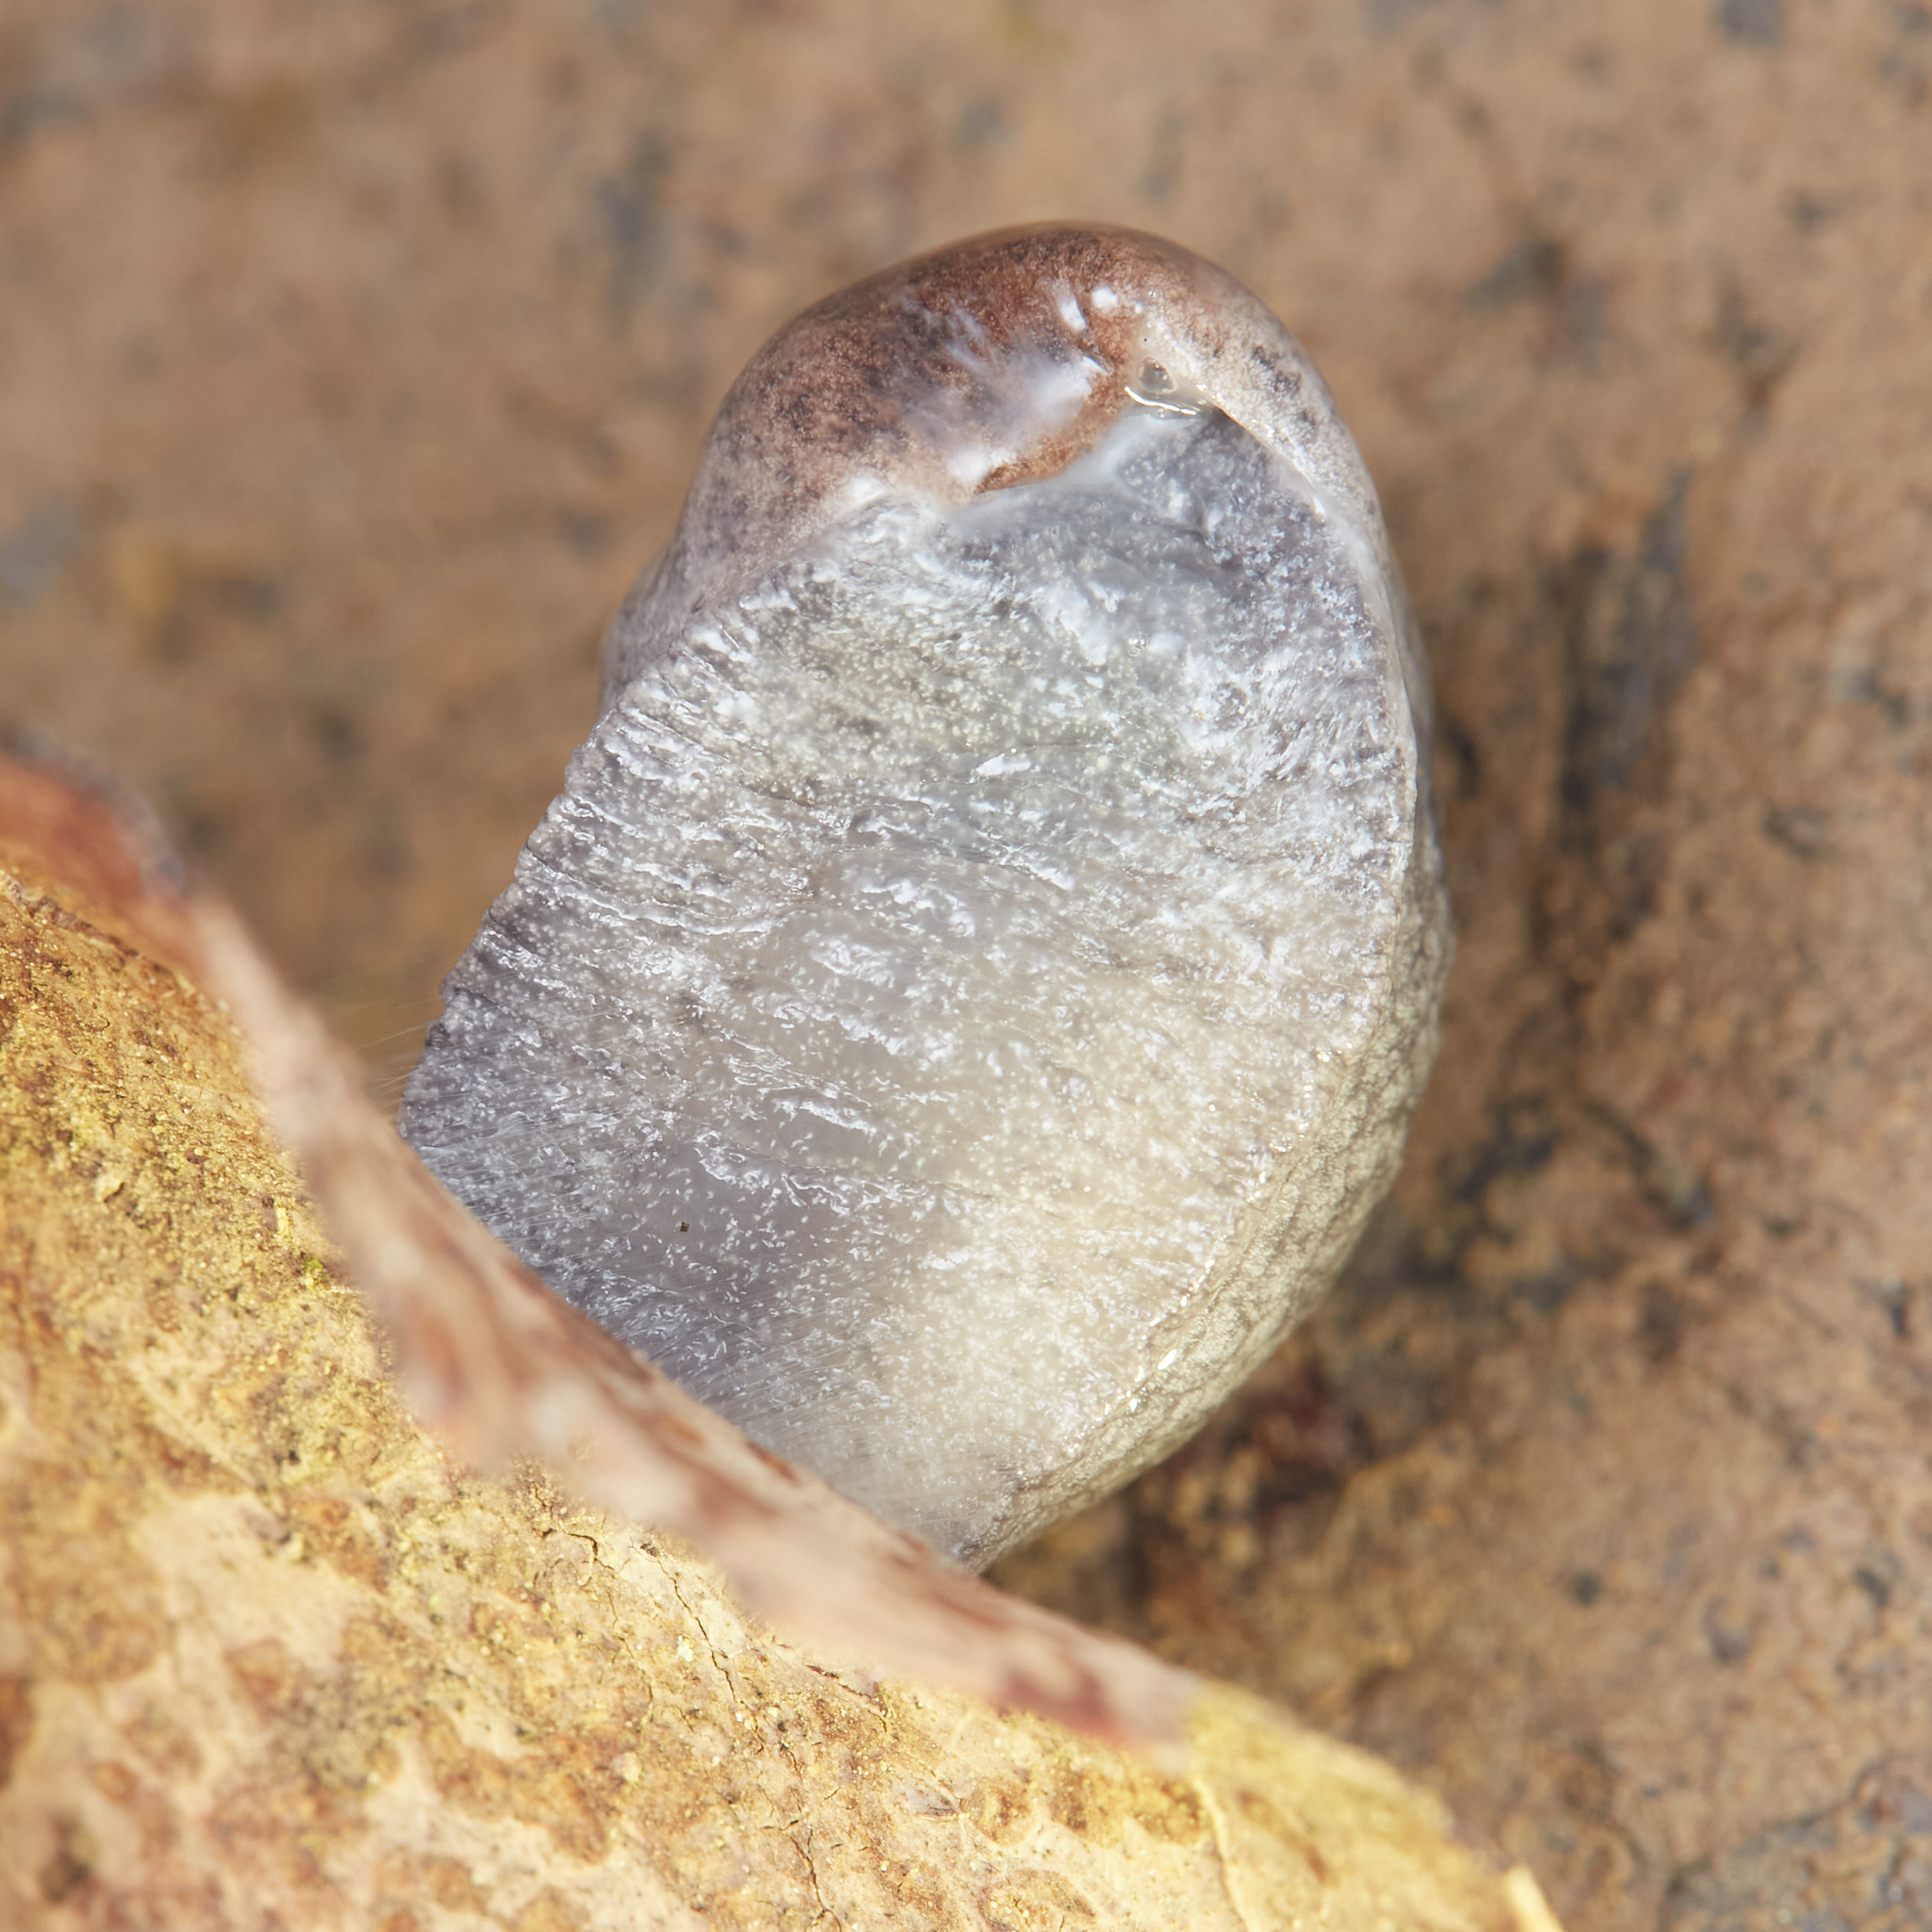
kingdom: Animalia
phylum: Mollusca
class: Gastropoda
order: Stylommatophora
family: Ariolimacidae
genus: Hesperarion
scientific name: Hesperarion niger
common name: Black western slug
